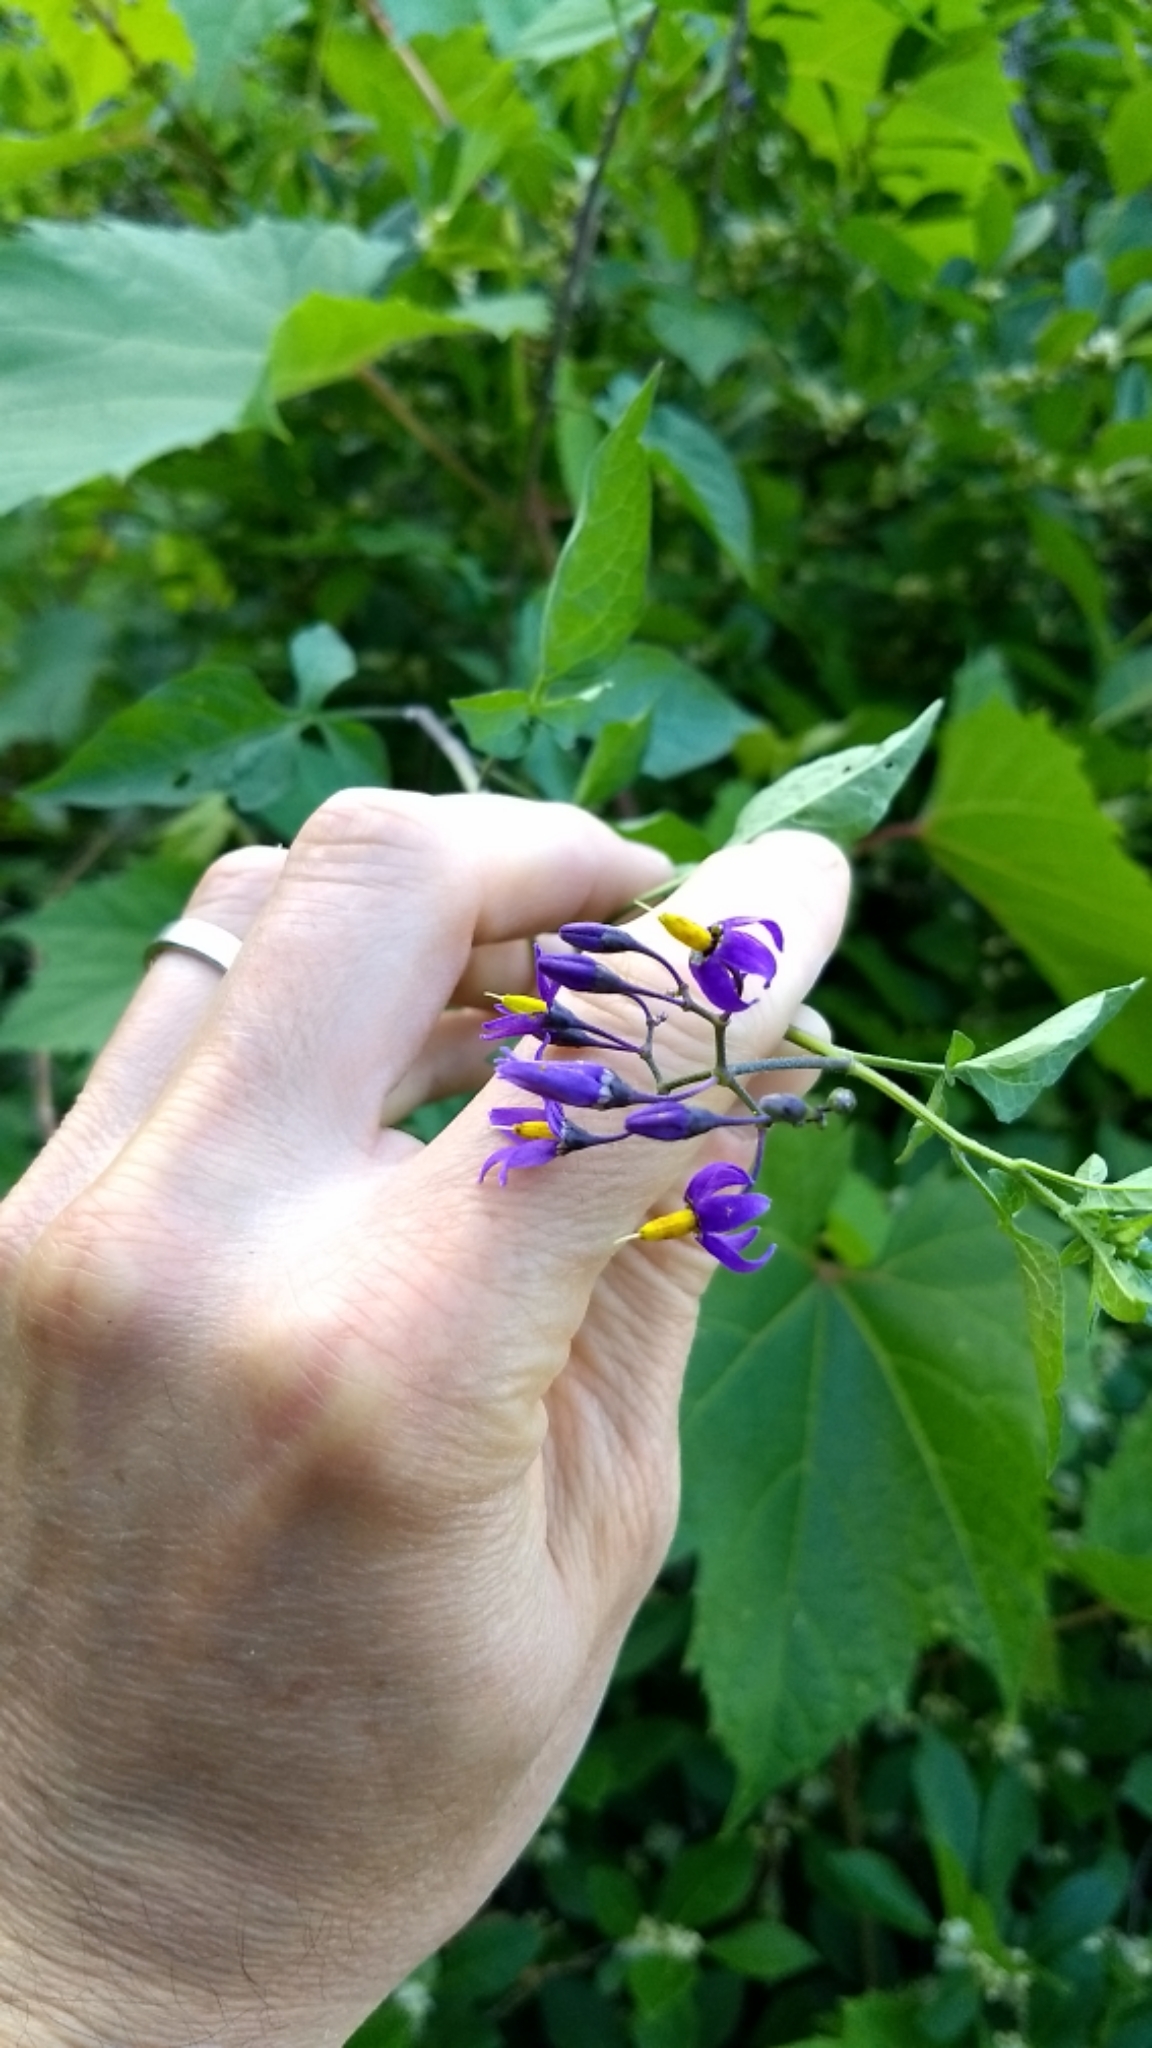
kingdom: Plantae
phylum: Tracheophyta
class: Magnoliopsida
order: Solanales
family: Solanaceae
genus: Solanum
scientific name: Solanum dulcamara
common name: Climbing nightshade
